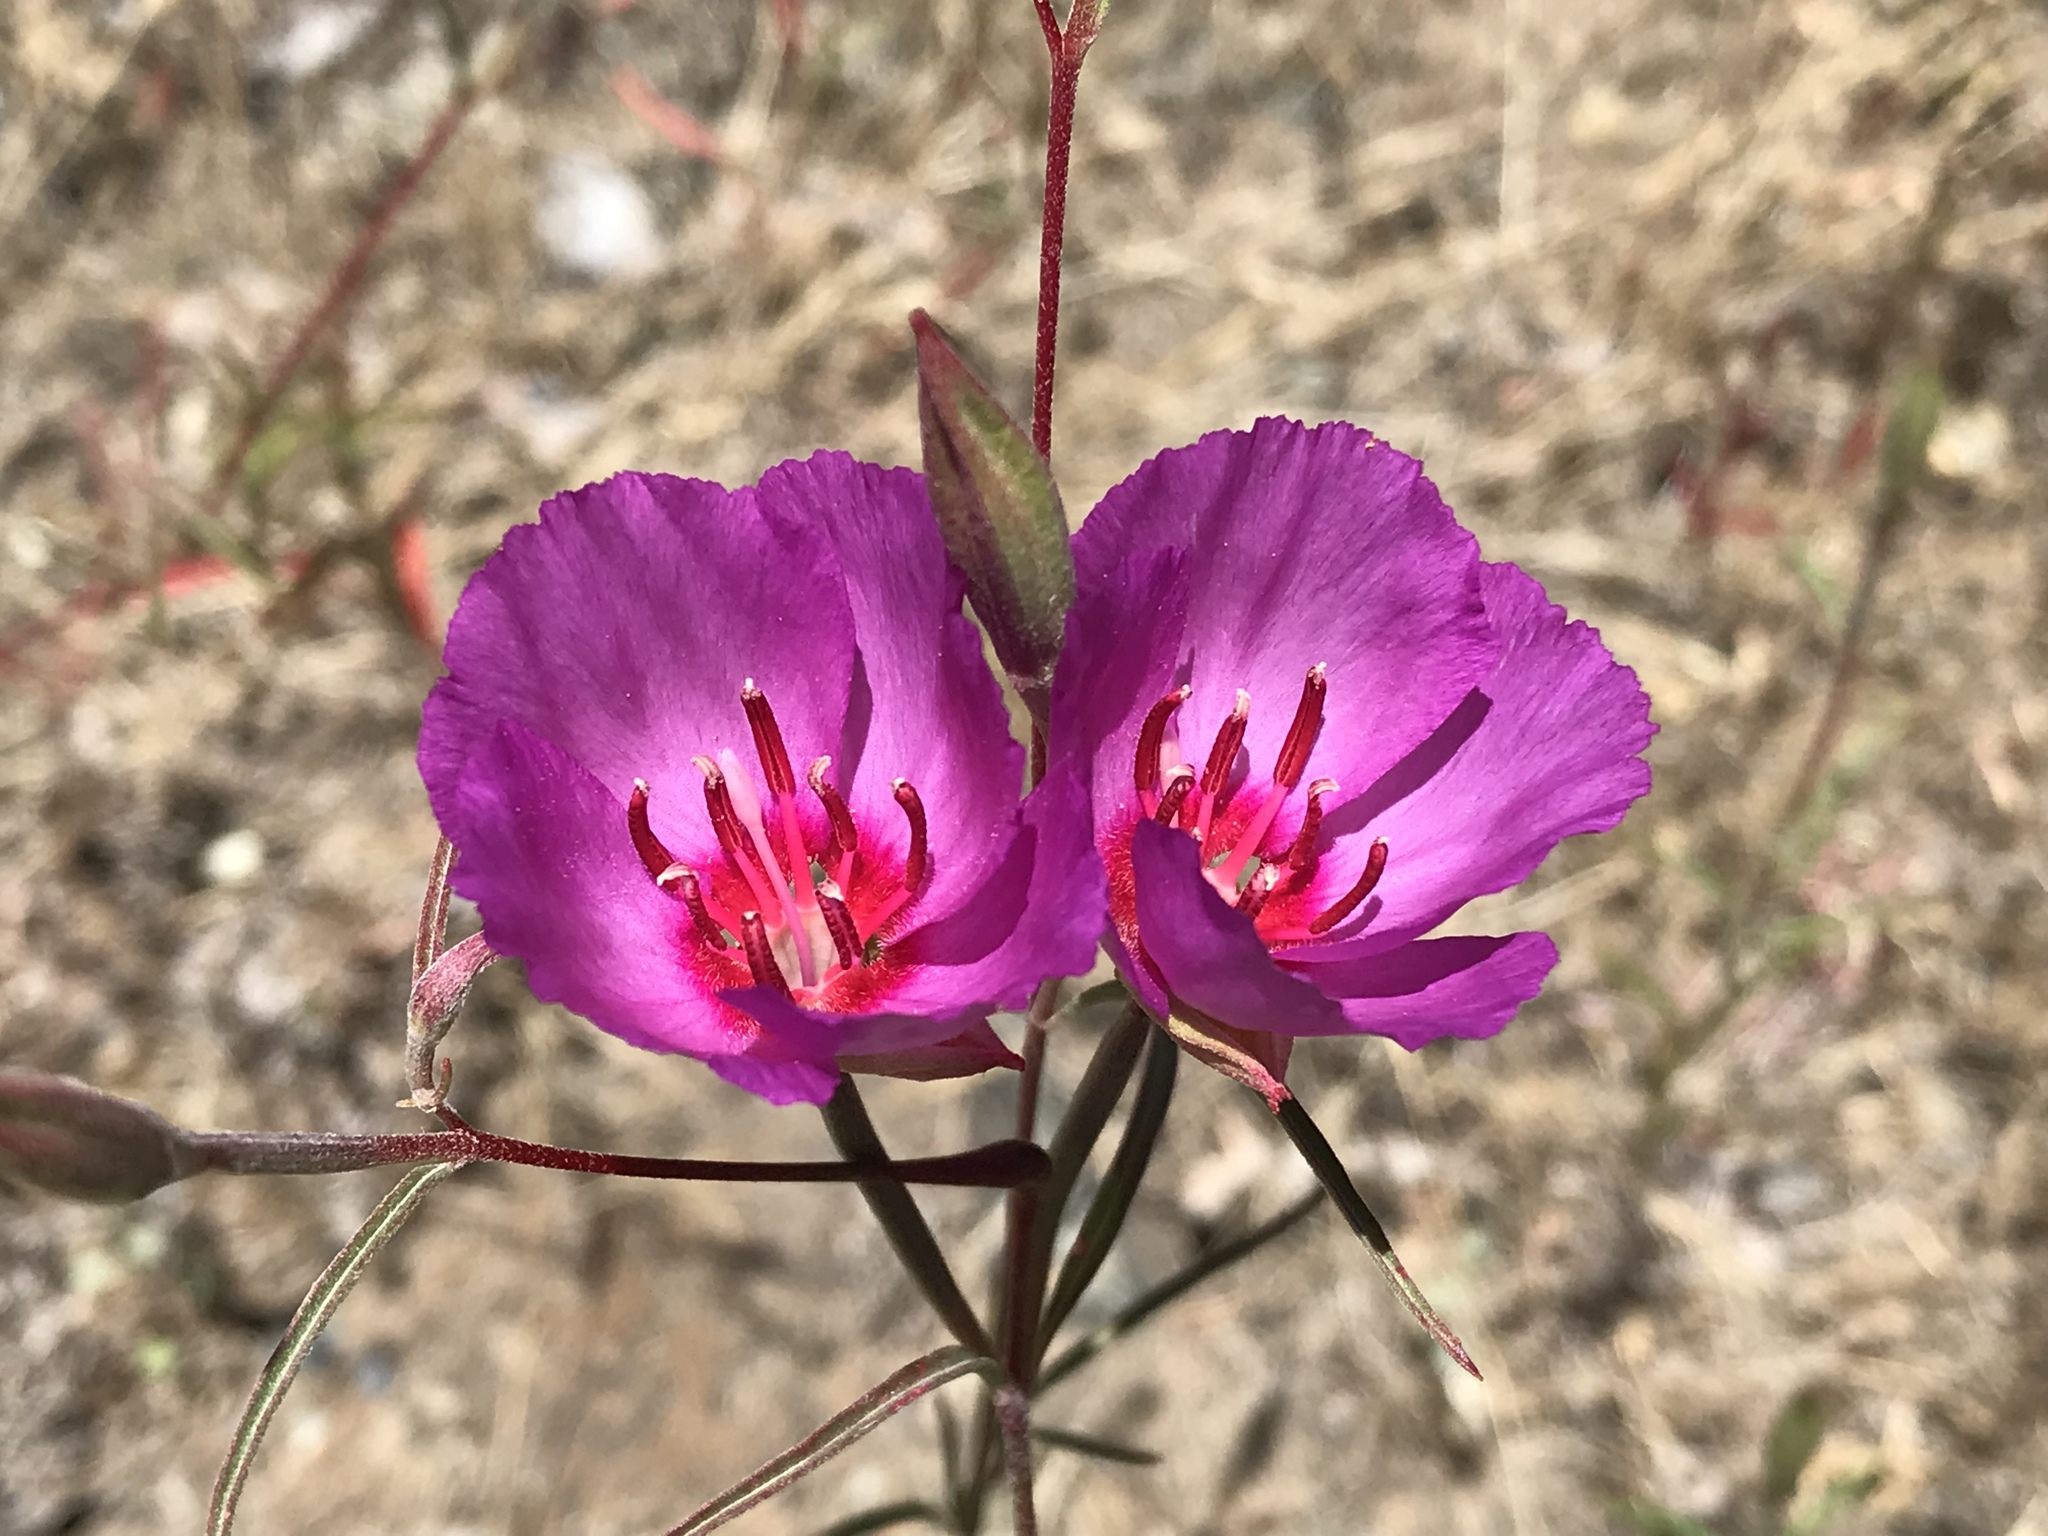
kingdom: Plantae
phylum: Tracheophyta
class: Magnoliopsida
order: Myrtales
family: Onagraceae
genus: Clarkia
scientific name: Clarkia rubicunda
